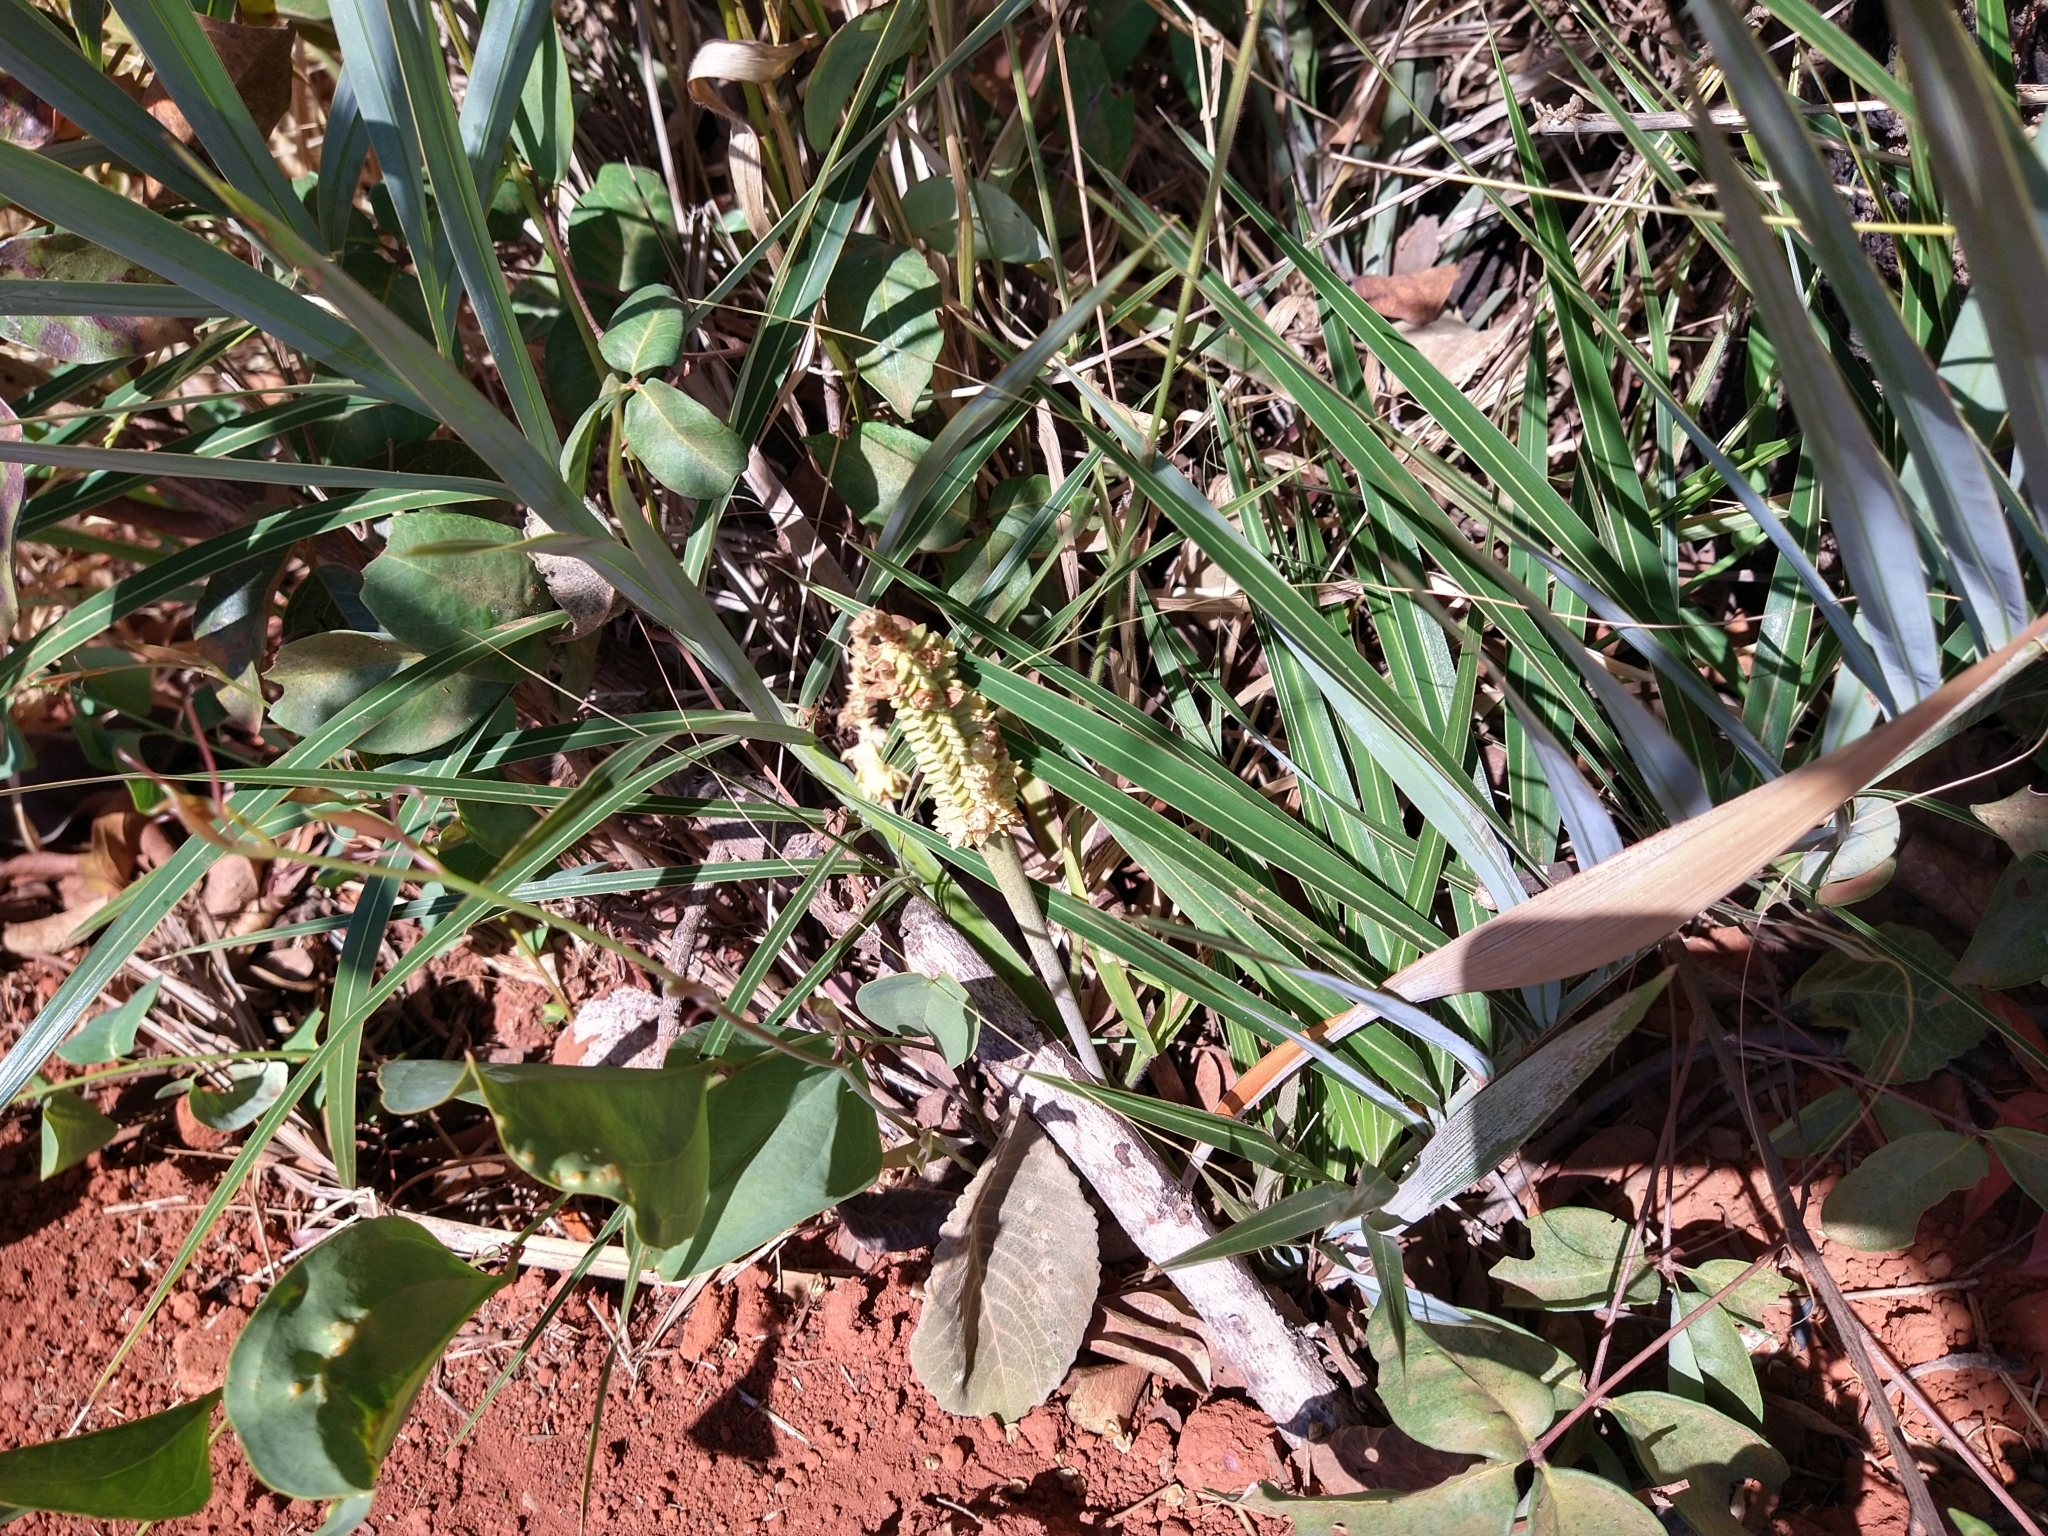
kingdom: Plantae
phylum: Tracheophyta
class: Liliopsida
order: Arecales
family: Arecaceae
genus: Allagoptera
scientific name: Allagoptera campestris
